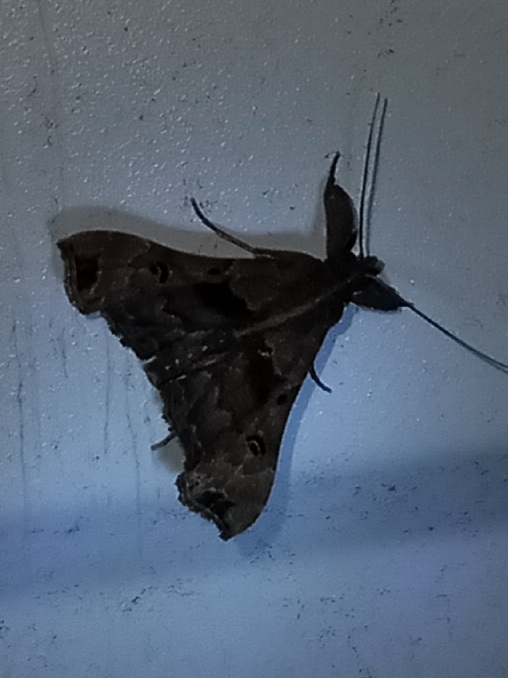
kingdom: Animalia
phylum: Arthropoda
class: Insecta
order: Lepidoptera
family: Erebidae
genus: Palthis
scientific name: Palthis asopialis
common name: Faint-spotted palthis moth
